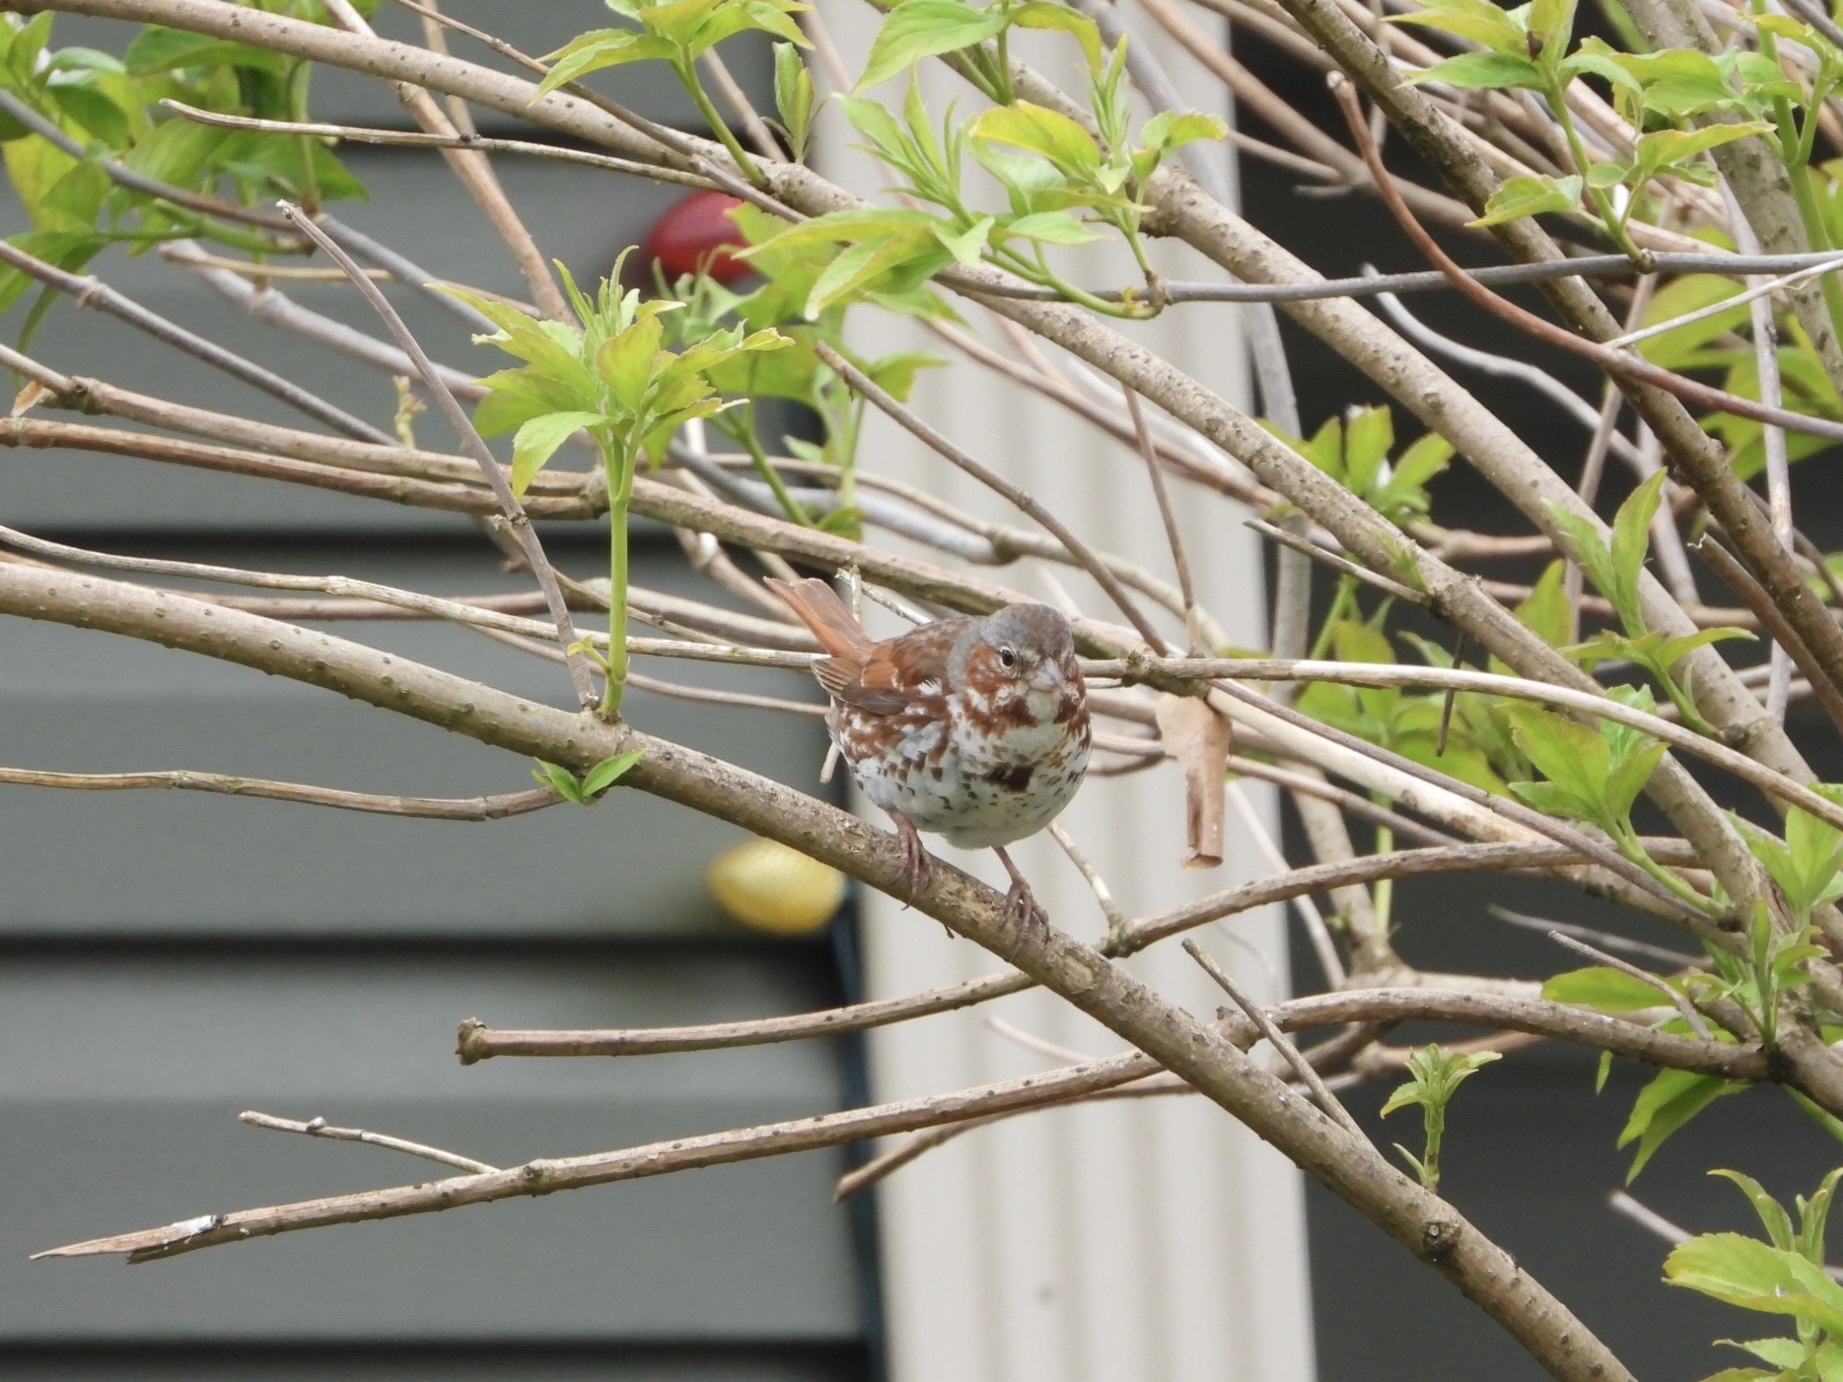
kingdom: Animalia
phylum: Chordata
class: Aves
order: Passeriformes
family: Passerellidae
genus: Passerella
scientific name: Passerella iliaca
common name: Fox sparrow
